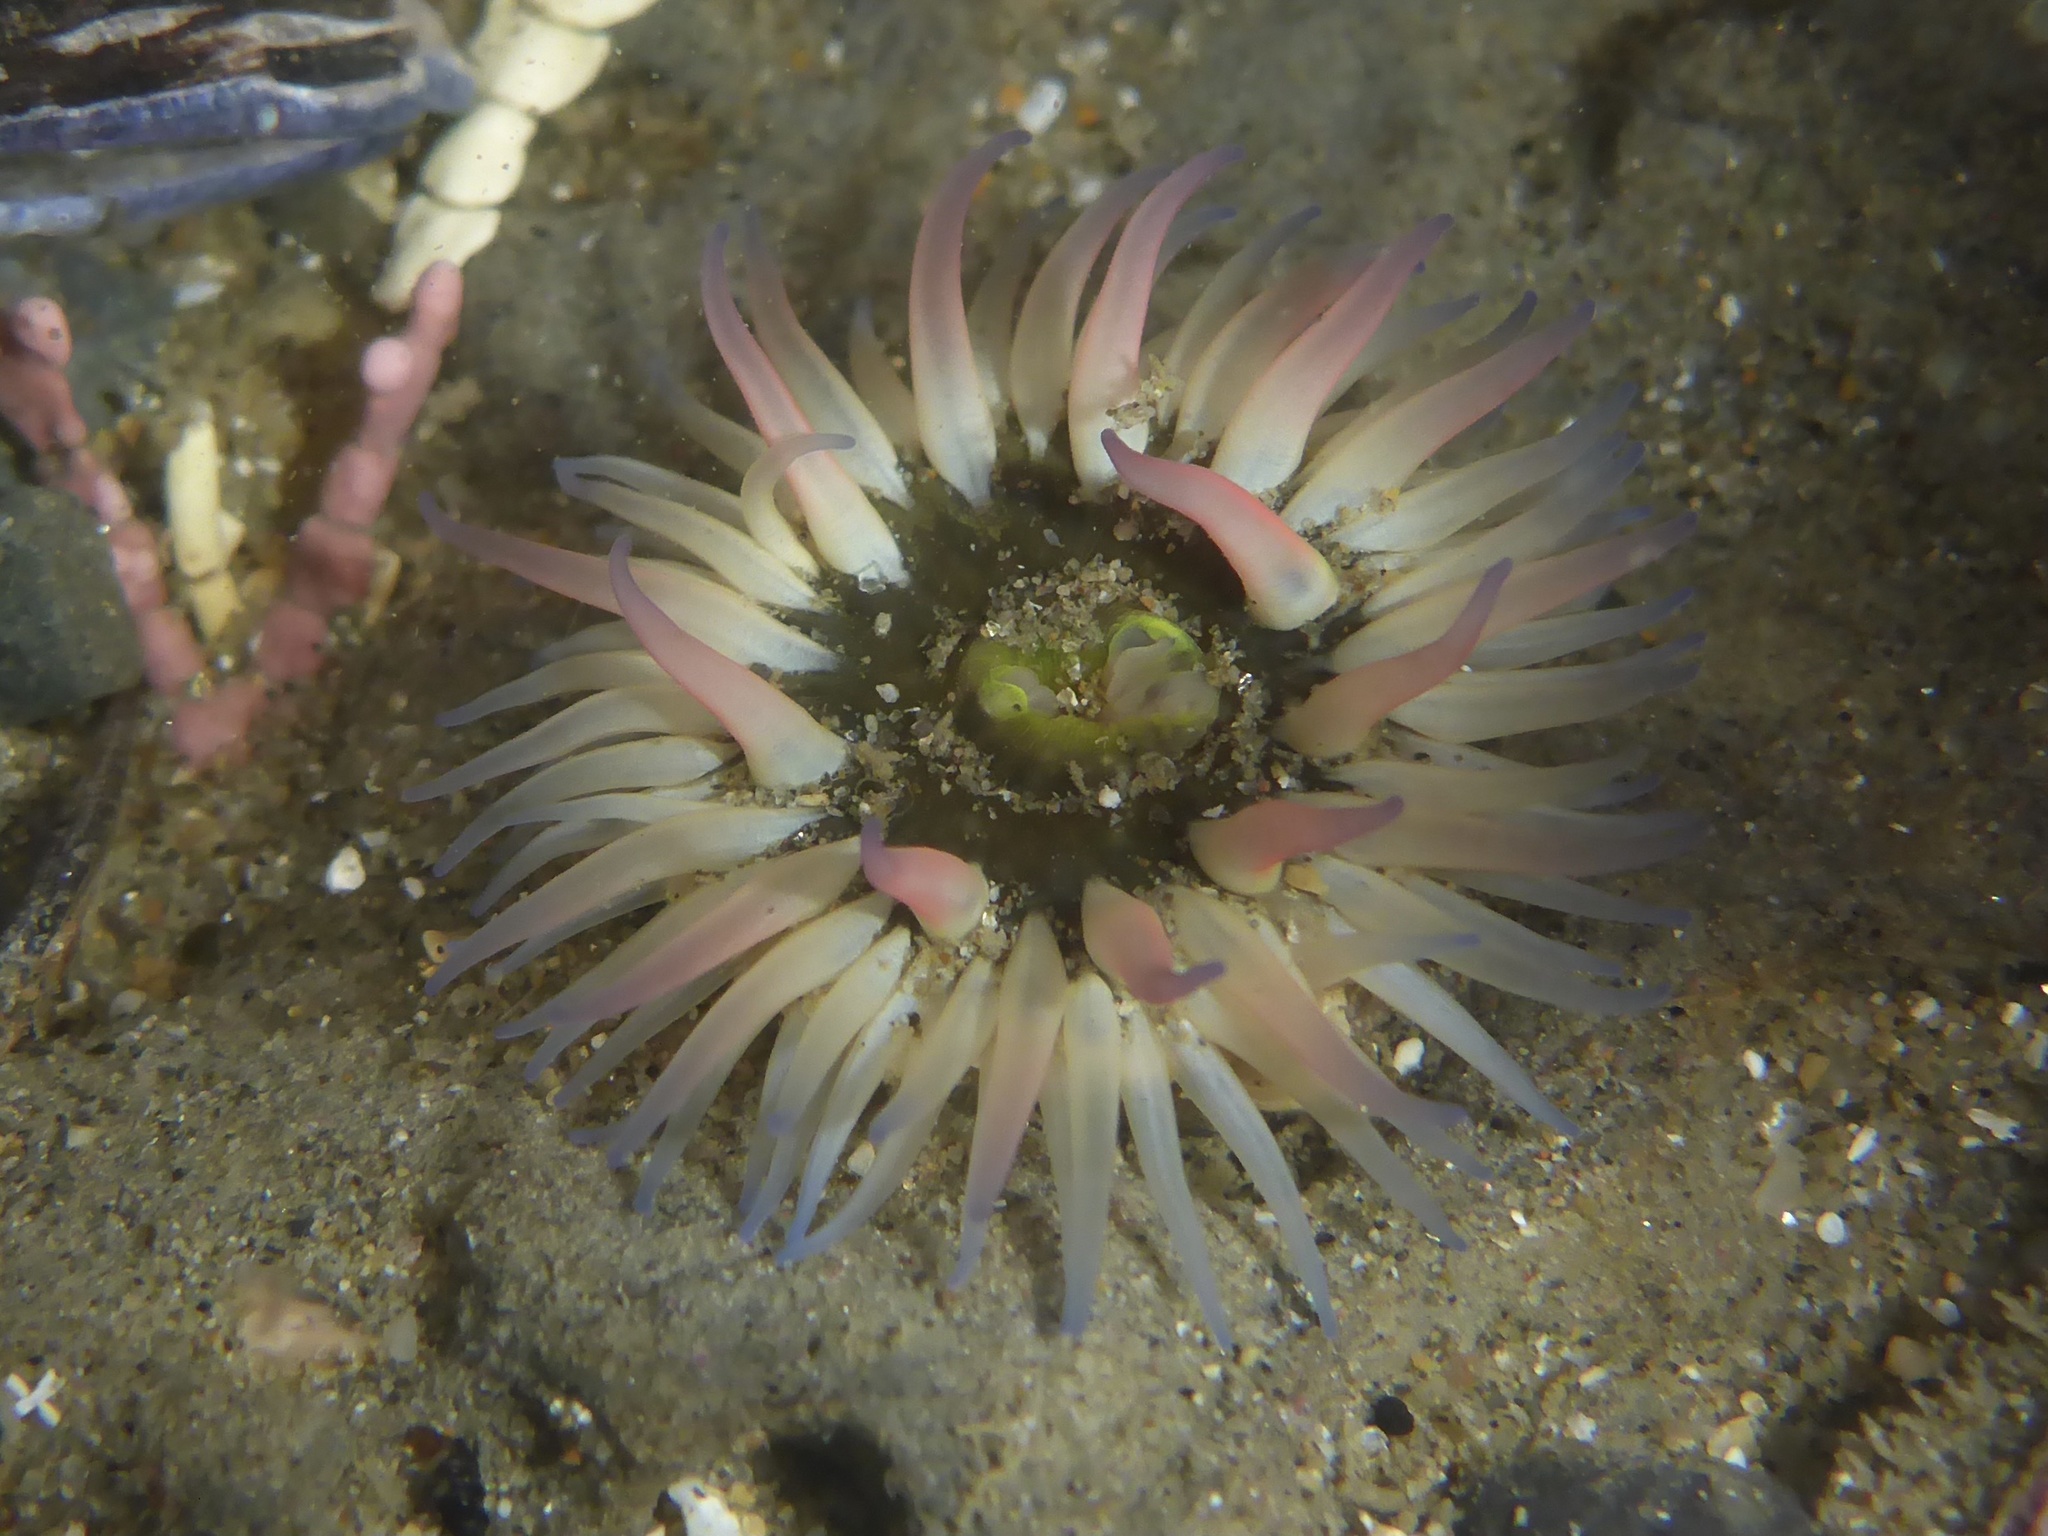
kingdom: Animalia
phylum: Cnidaria
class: Anthozoa
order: Actiniaria
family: Actiniidae
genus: Anthopleura
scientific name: Anthopleura artemisia
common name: Buried sea anemone
